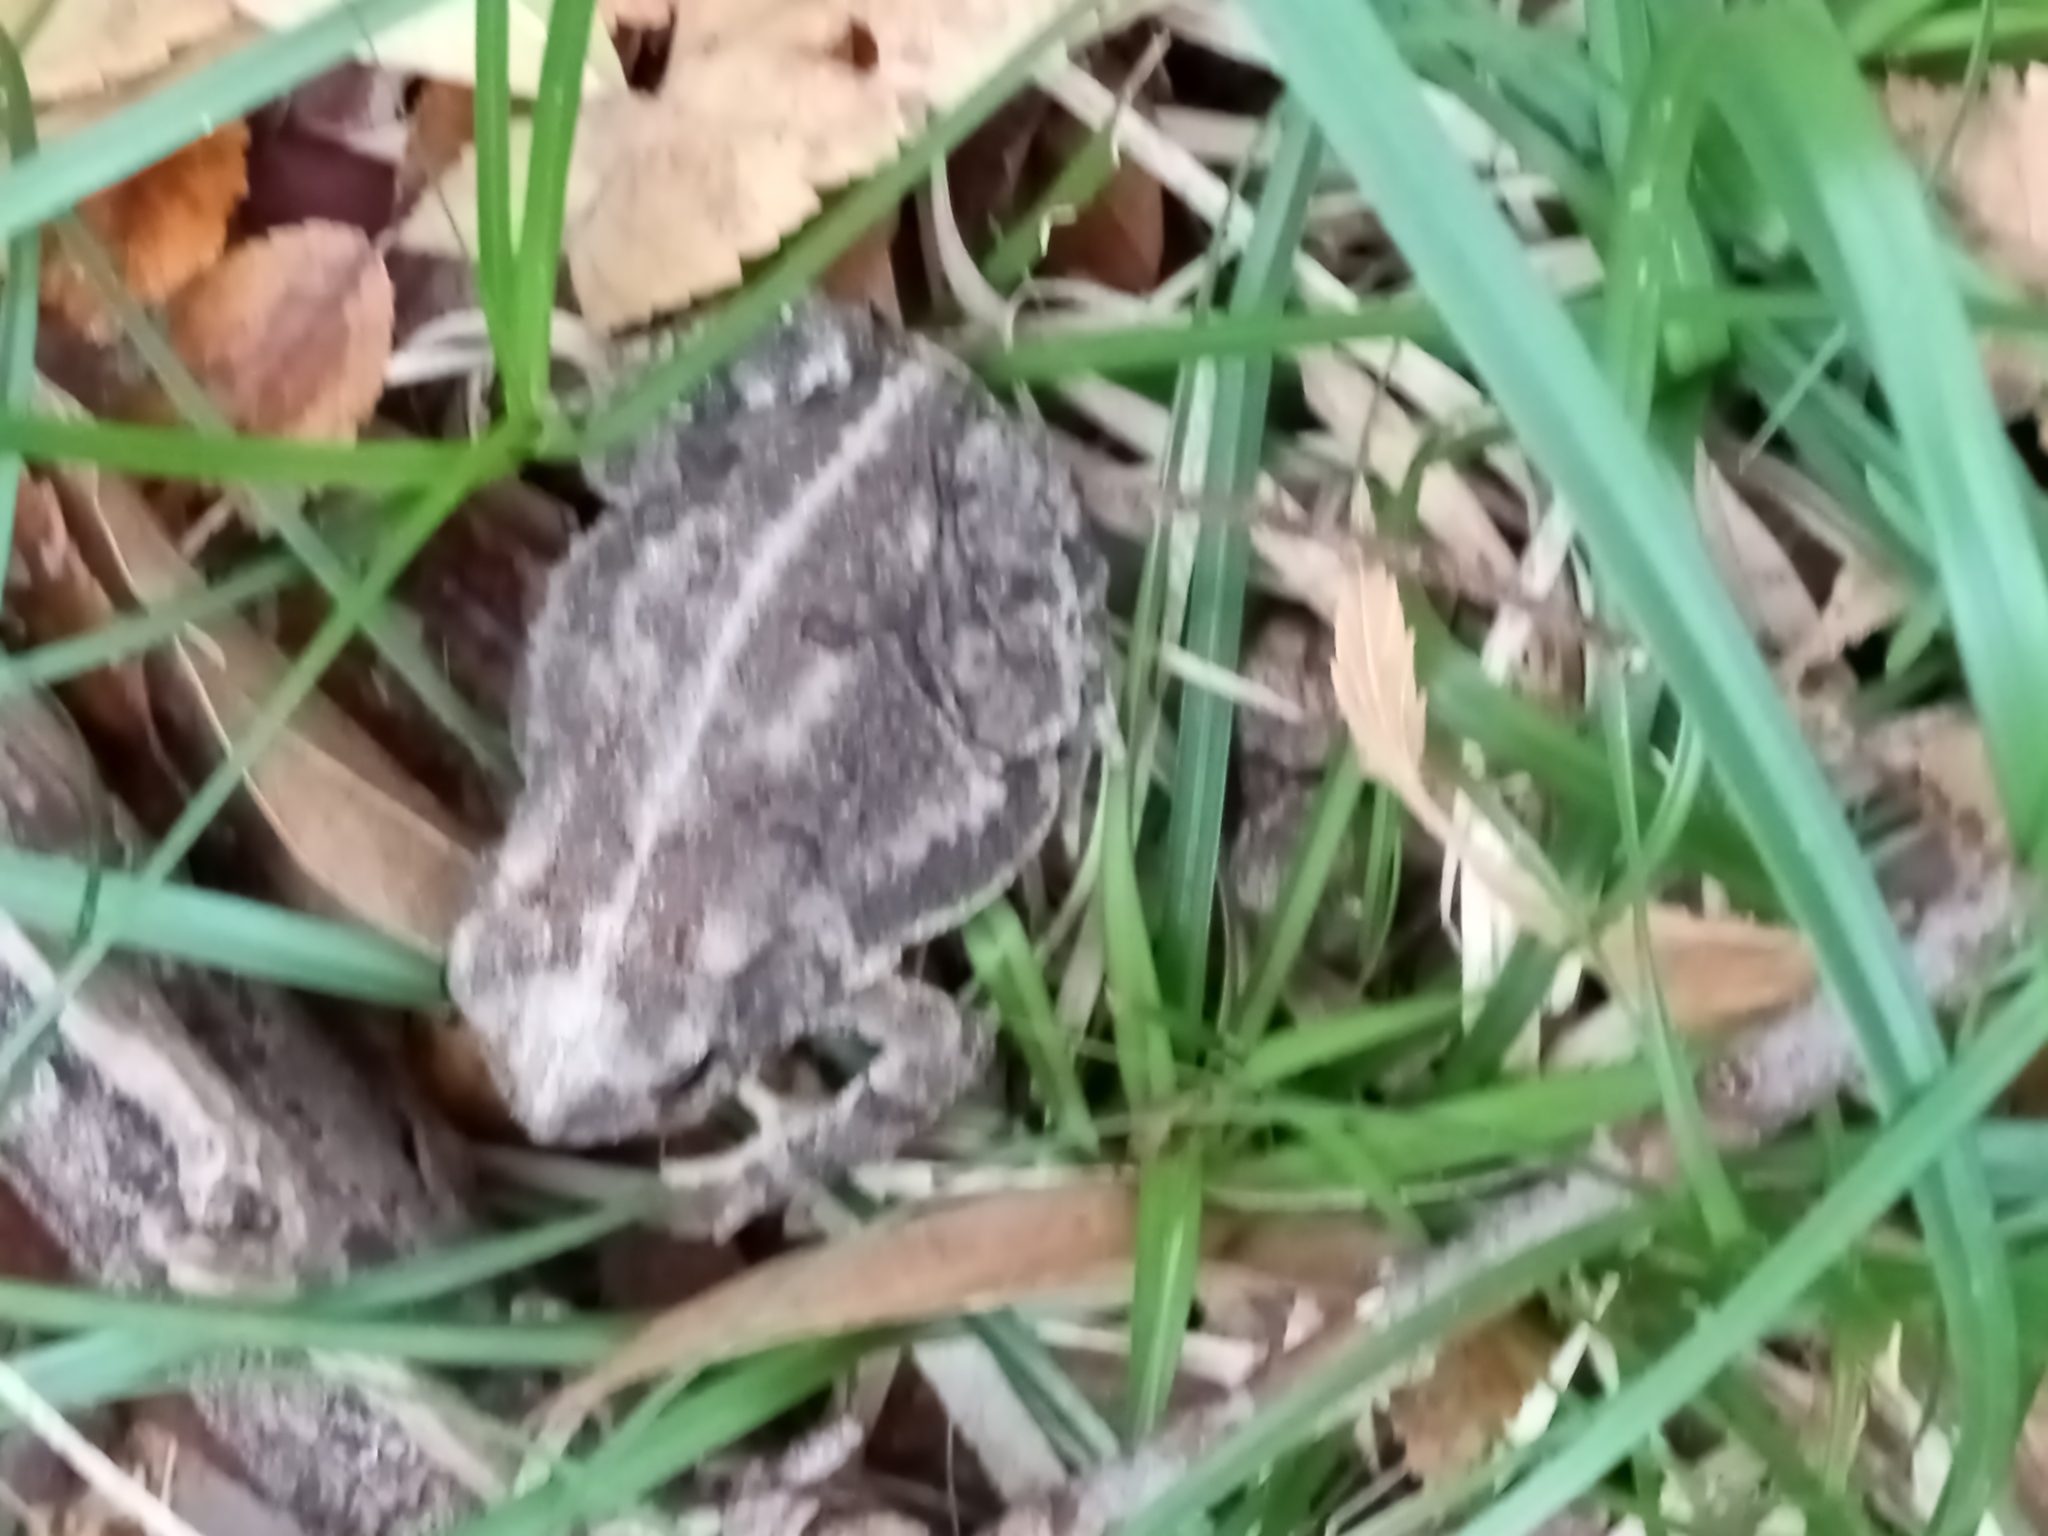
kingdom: Animalia
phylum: Chordata
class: Amphibia
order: Anura
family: Bufonidae
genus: Incilius
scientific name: Incilius nebulifer
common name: Gulf coast toad
